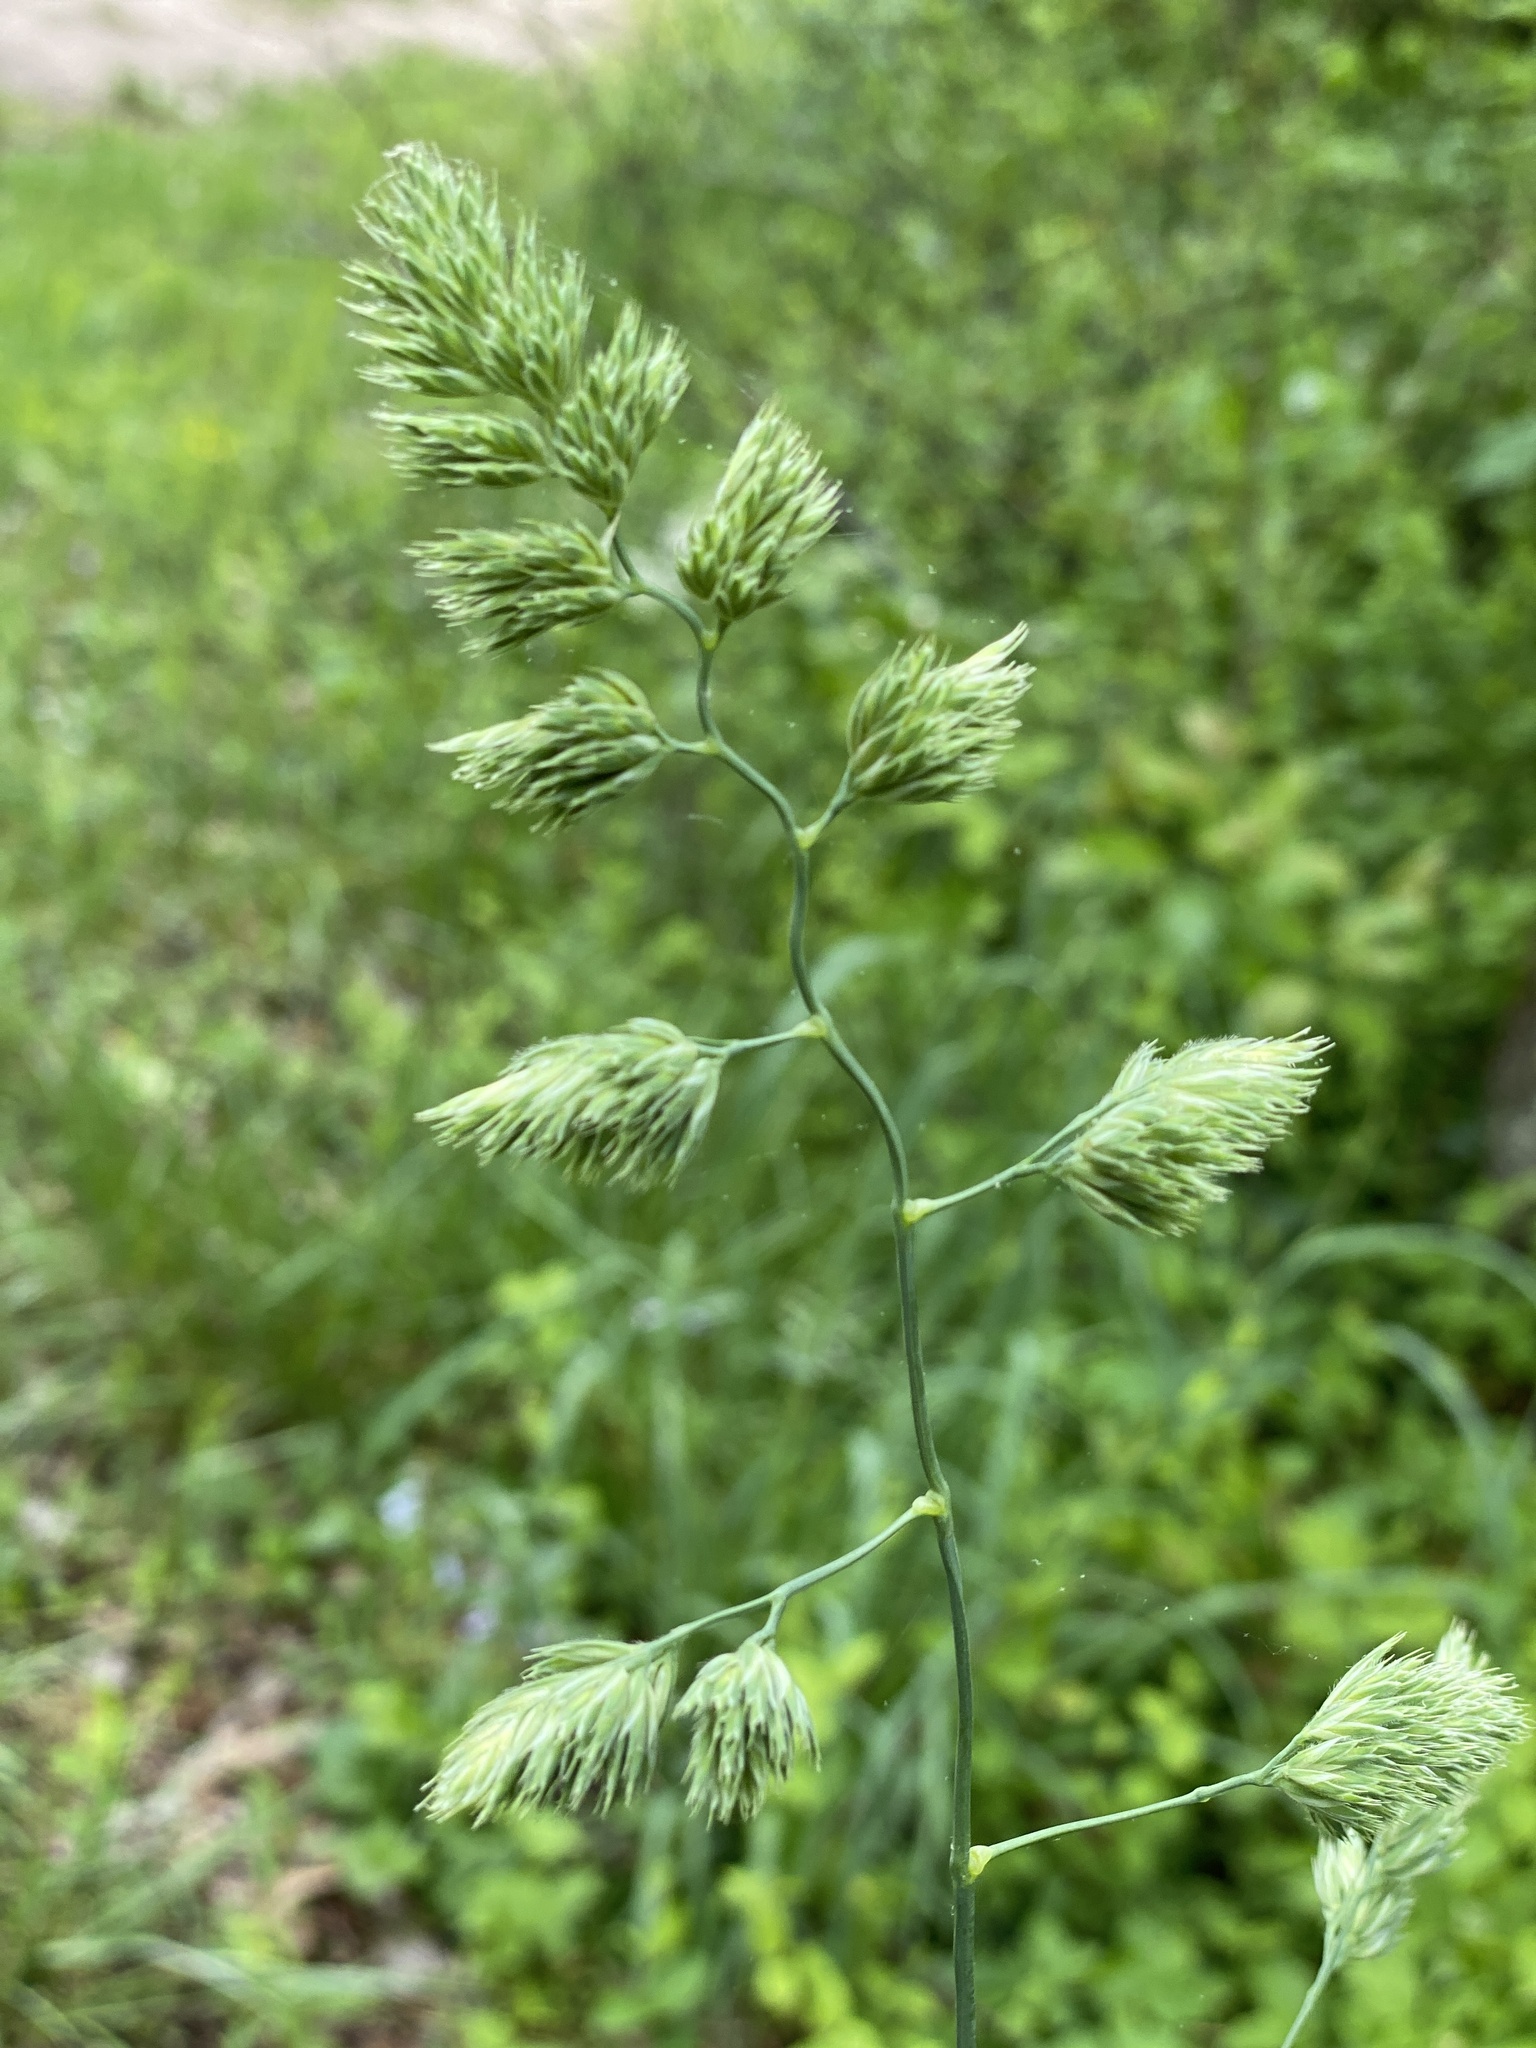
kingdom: Plantae
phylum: Tracheophyta
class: Liliopsida
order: Poales
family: Poaceae
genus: Dactylis
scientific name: Dactylis glomerata
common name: Orchardgrass
